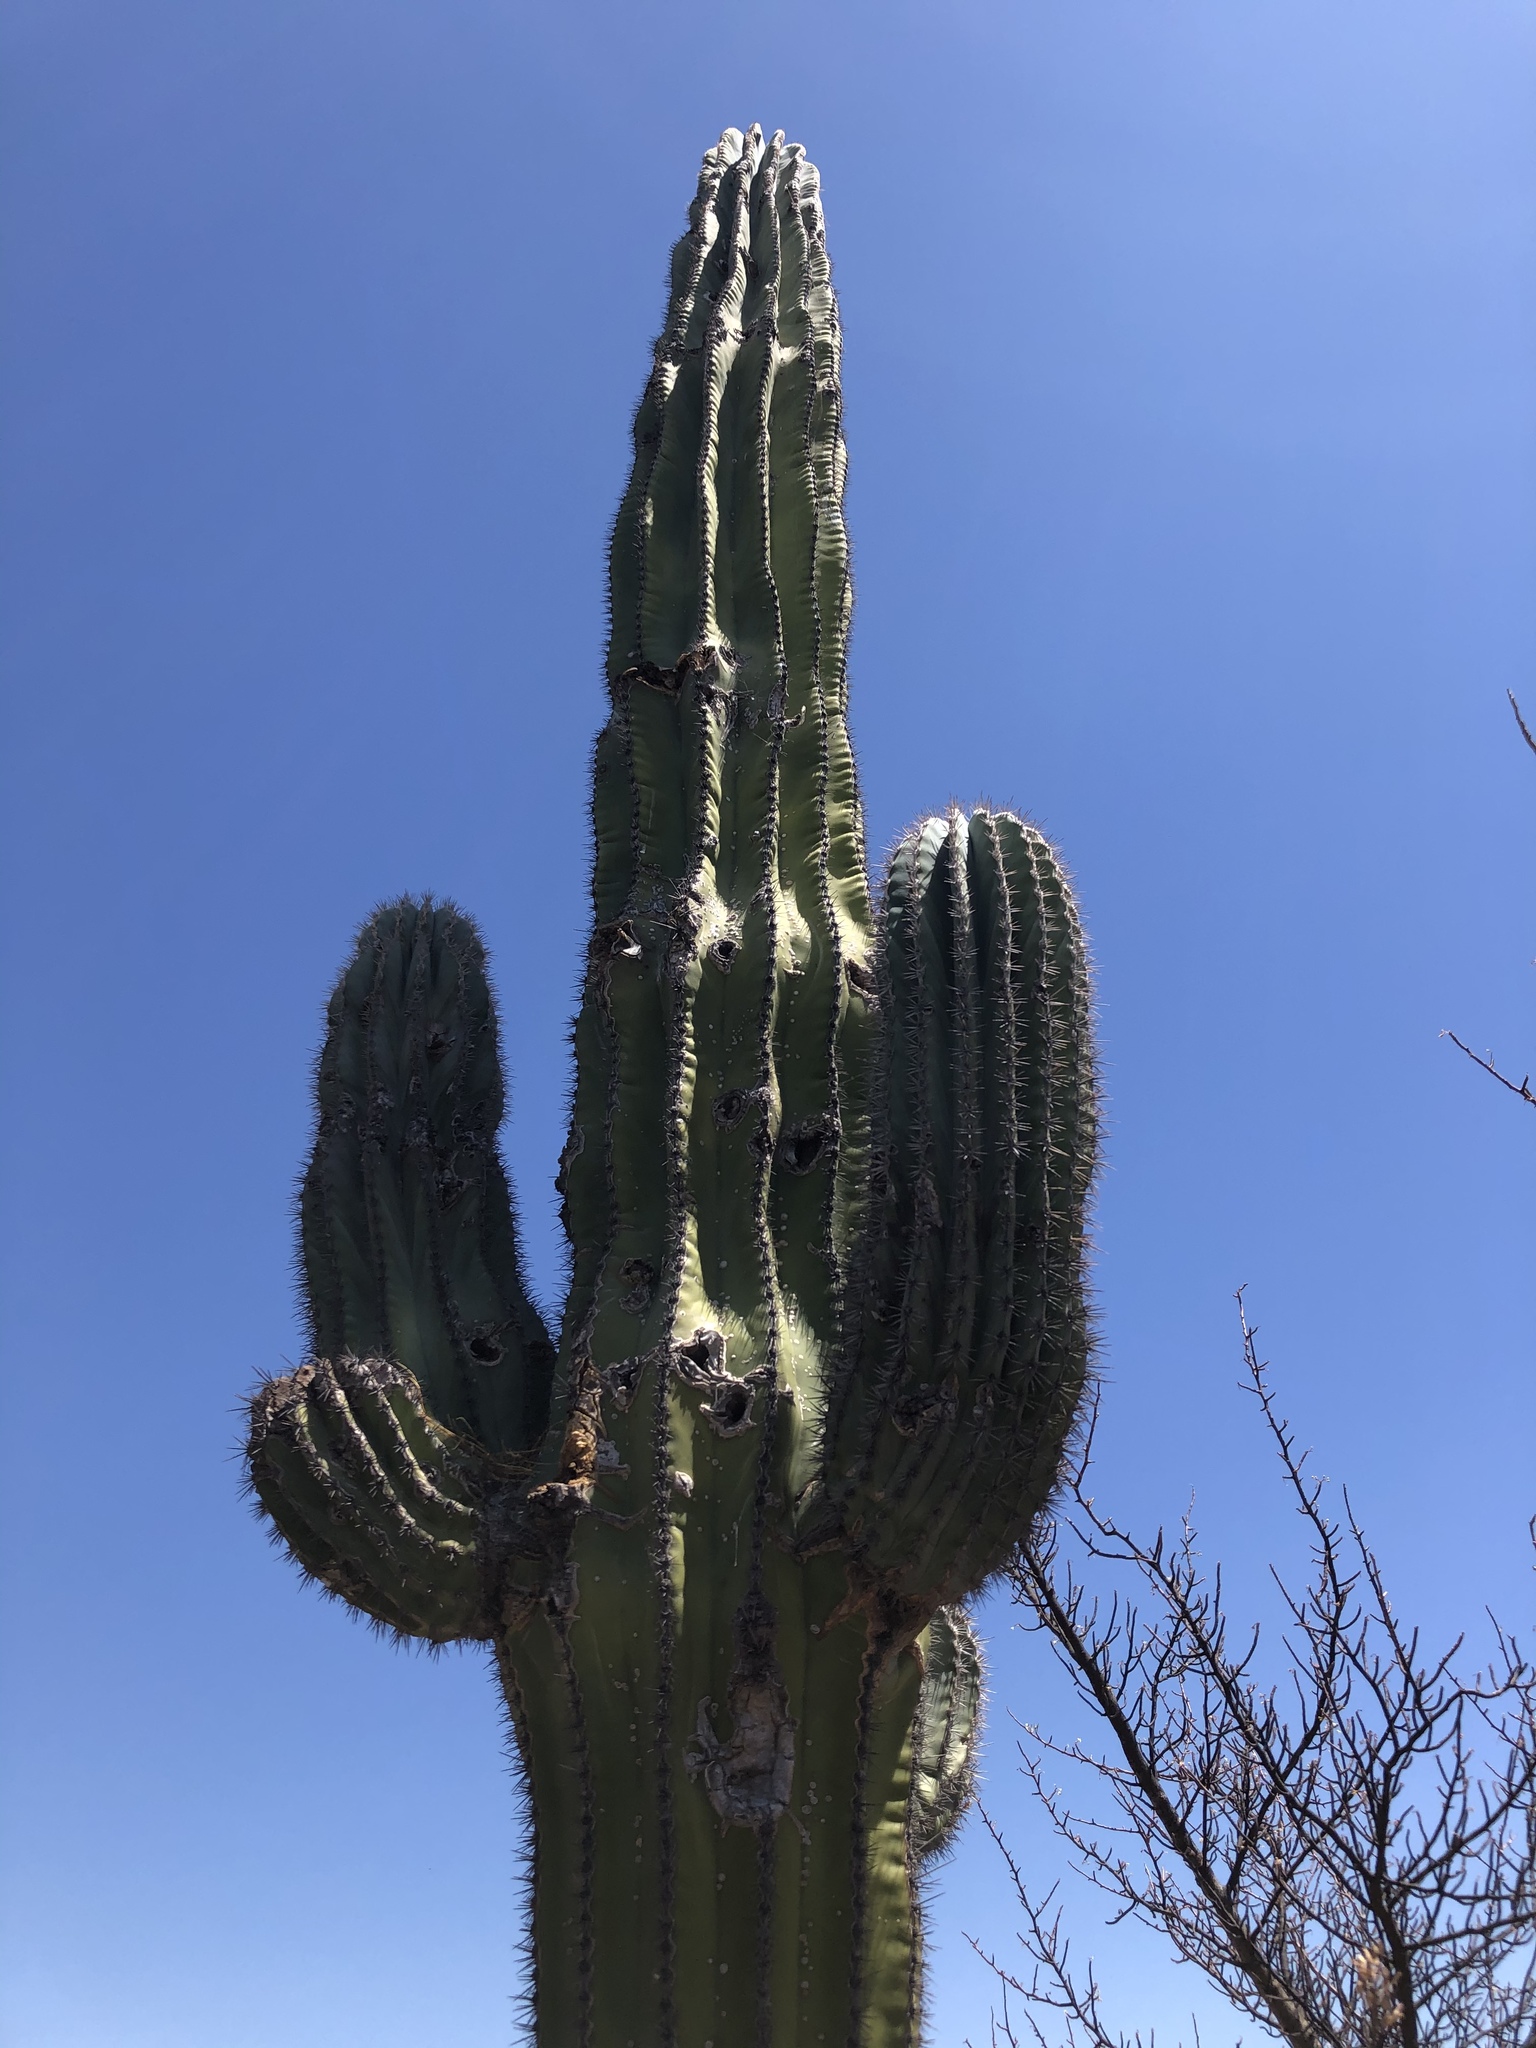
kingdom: Plantae
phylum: Tracheophyta
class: Magnoliopsida
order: Caryophyllales
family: Cactaceae
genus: Pachycereus
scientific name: Pachycereus pringlei
